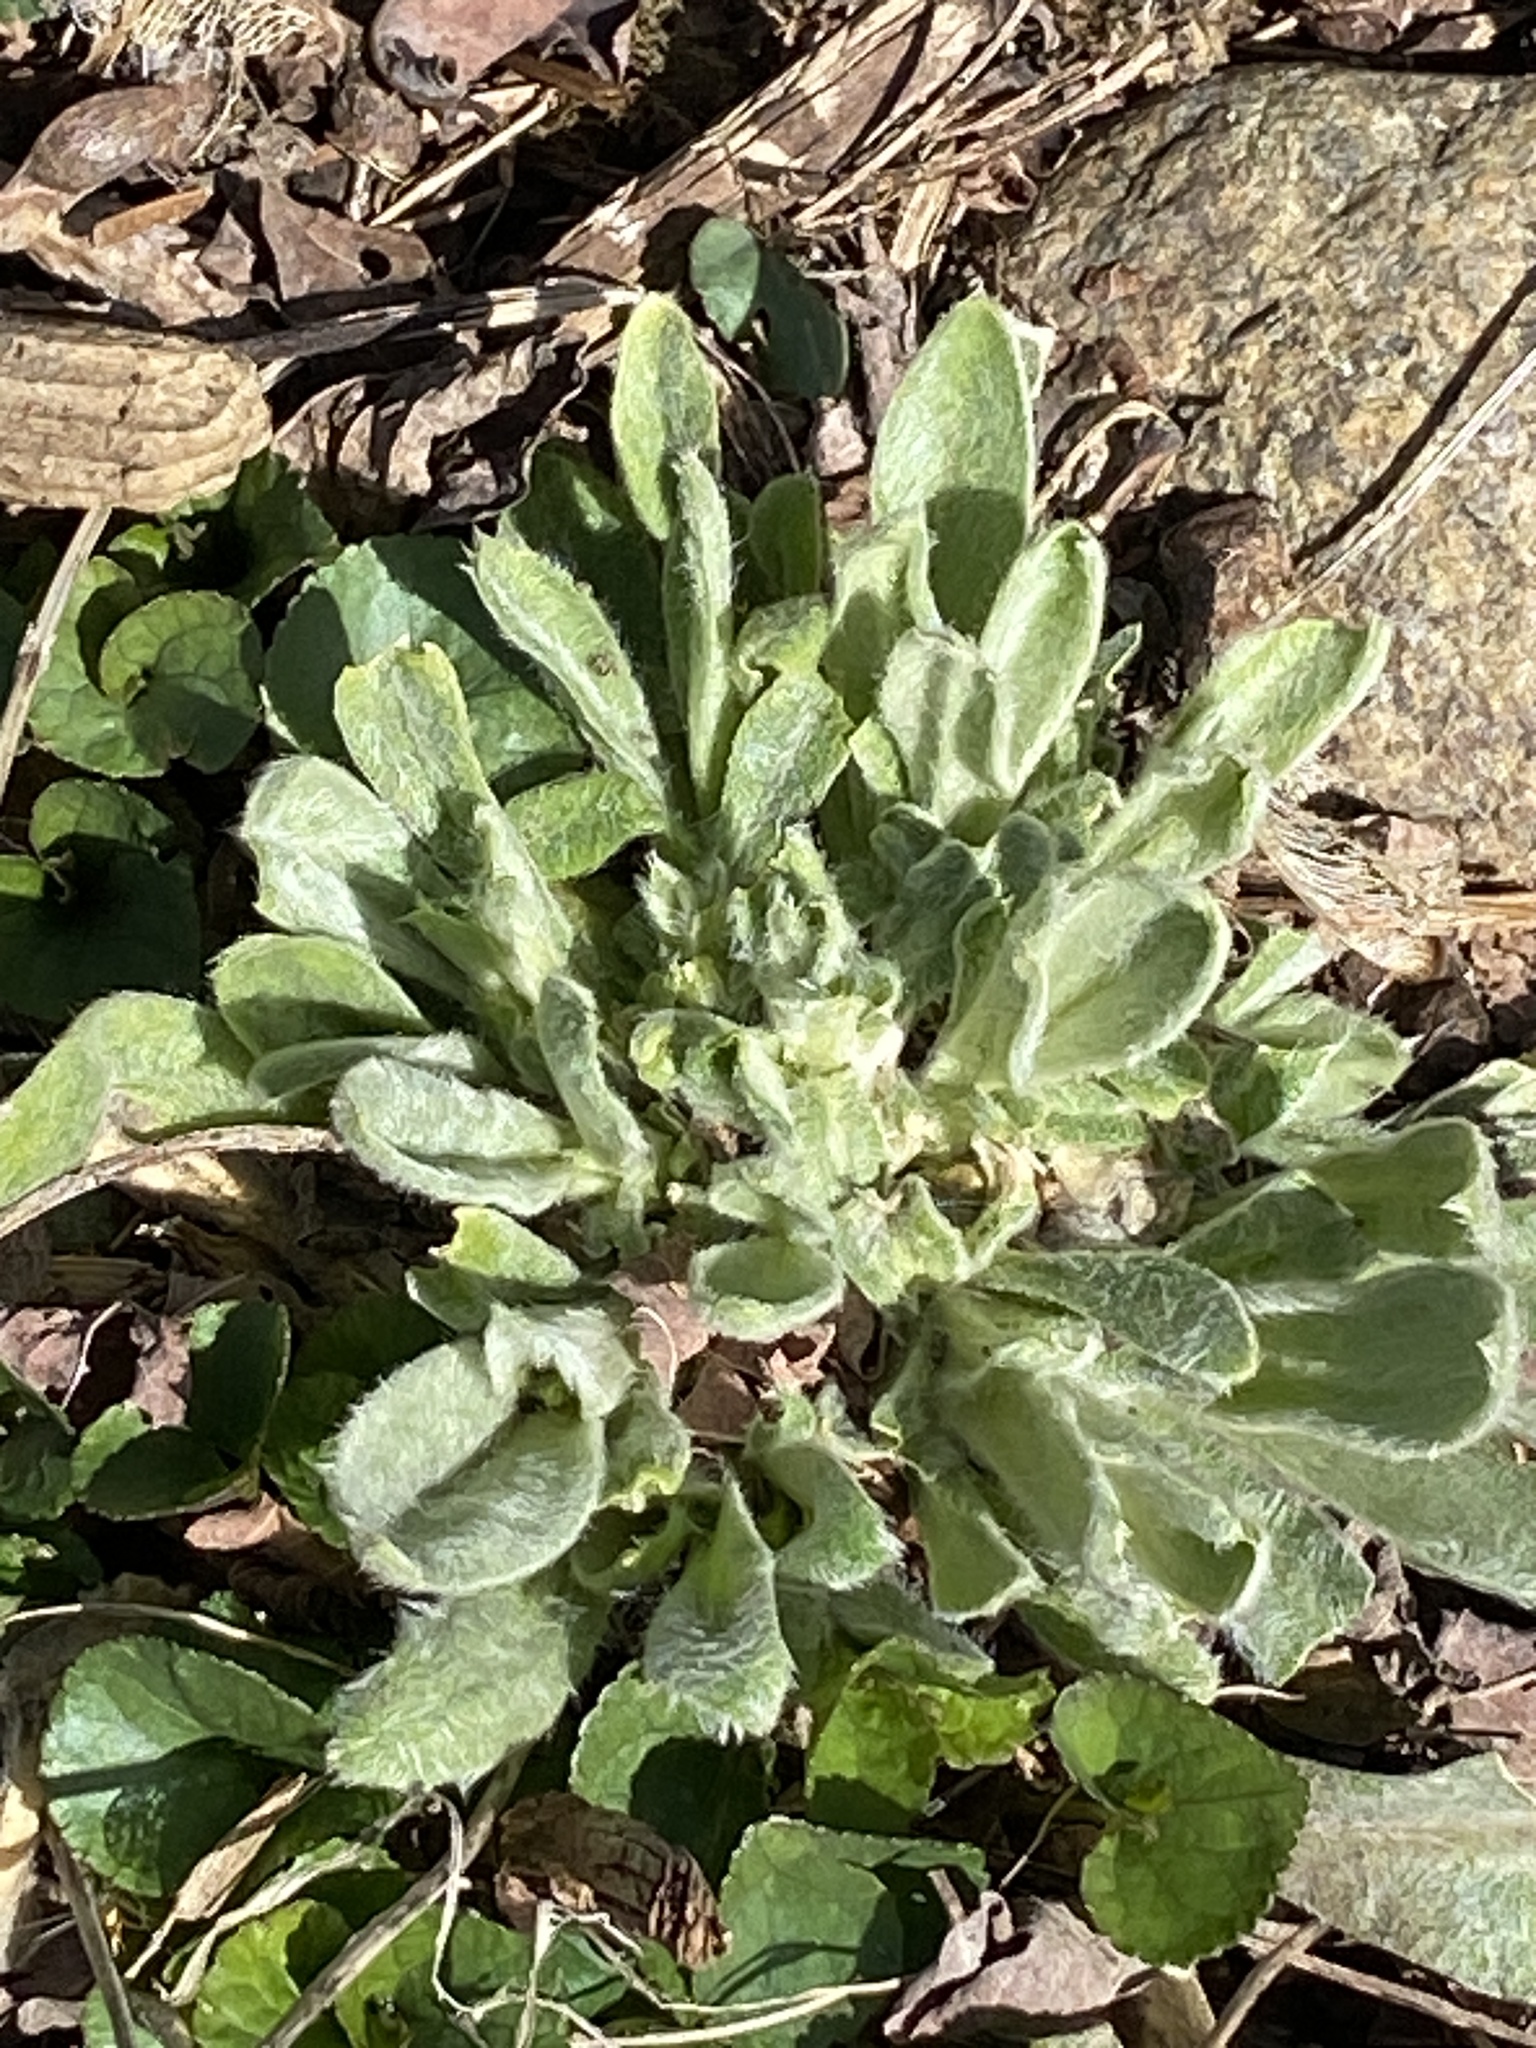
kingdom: Plantae
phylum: Tracheophyta
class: Magnoliopsida
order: Caryophyllales
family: Caryophyllaceae
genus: Silene
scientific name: Silene coronaria
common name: Rose campion
